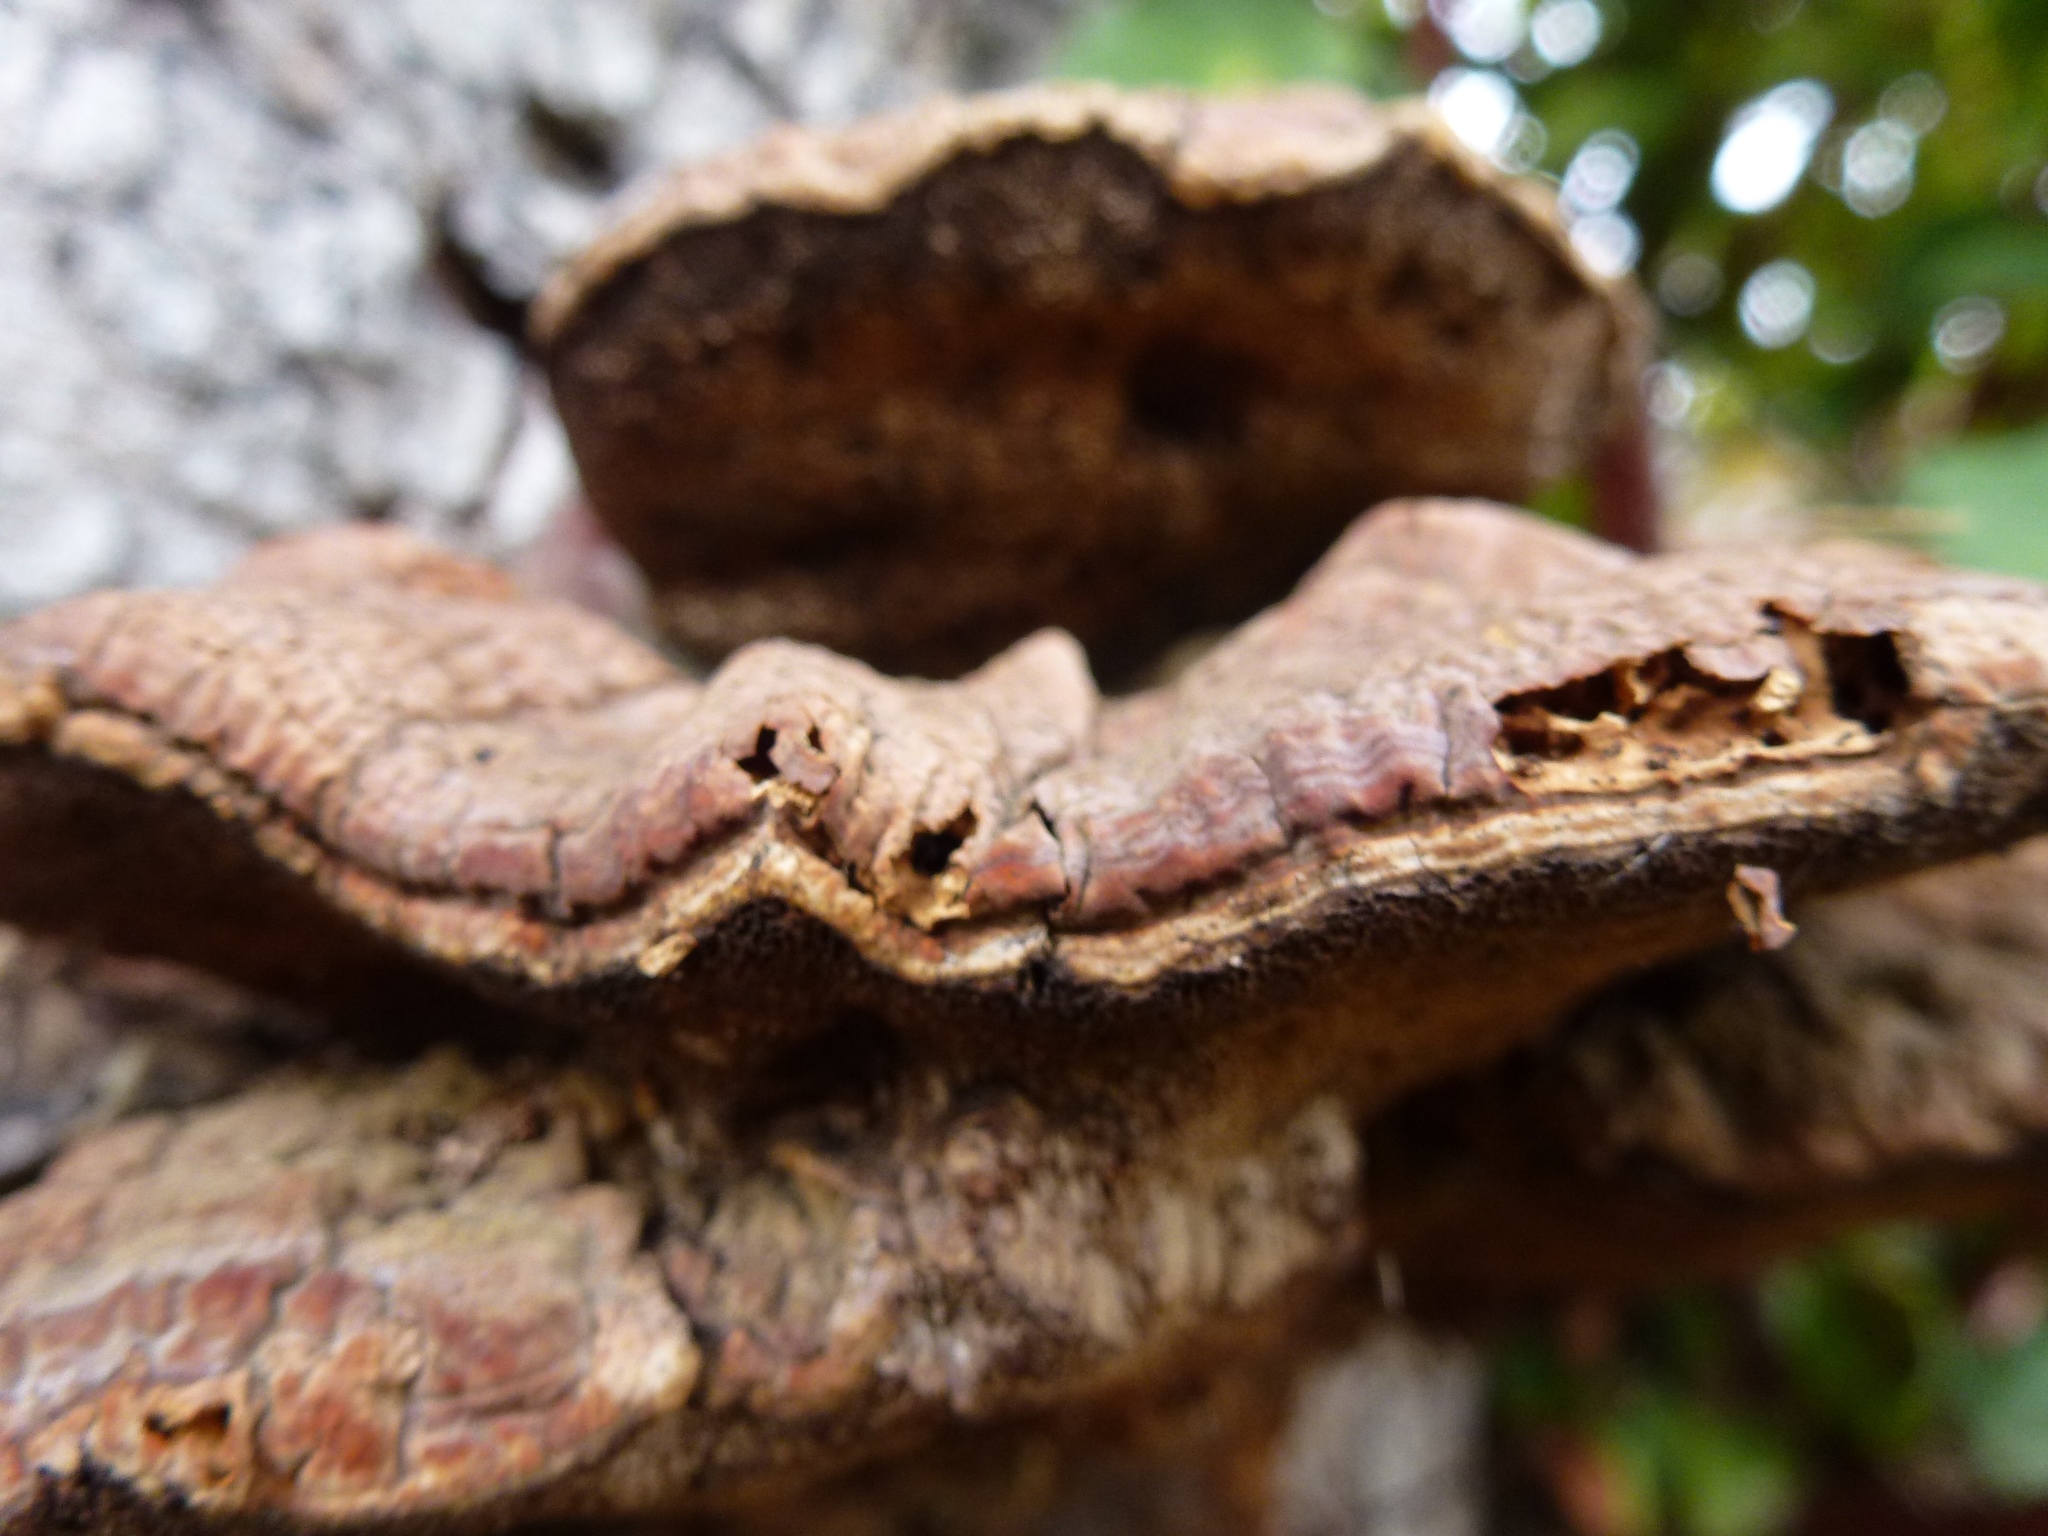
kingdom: Fungi
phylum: Basidiomycota
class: Agaricomycetes
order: Polyporales
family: Polyporaceae
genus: Ganoderma
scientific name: Ganoderma polychromum
